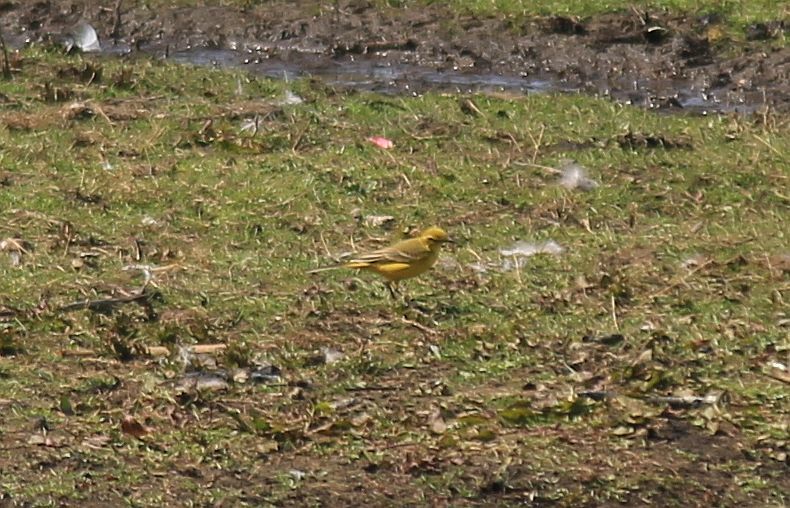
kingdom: Animalia
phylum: Chordata
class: Aves
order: Passeriformes
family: Motacillidae
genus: Motacilla
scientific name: Motacilla flava
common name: Western yellow wagtail
